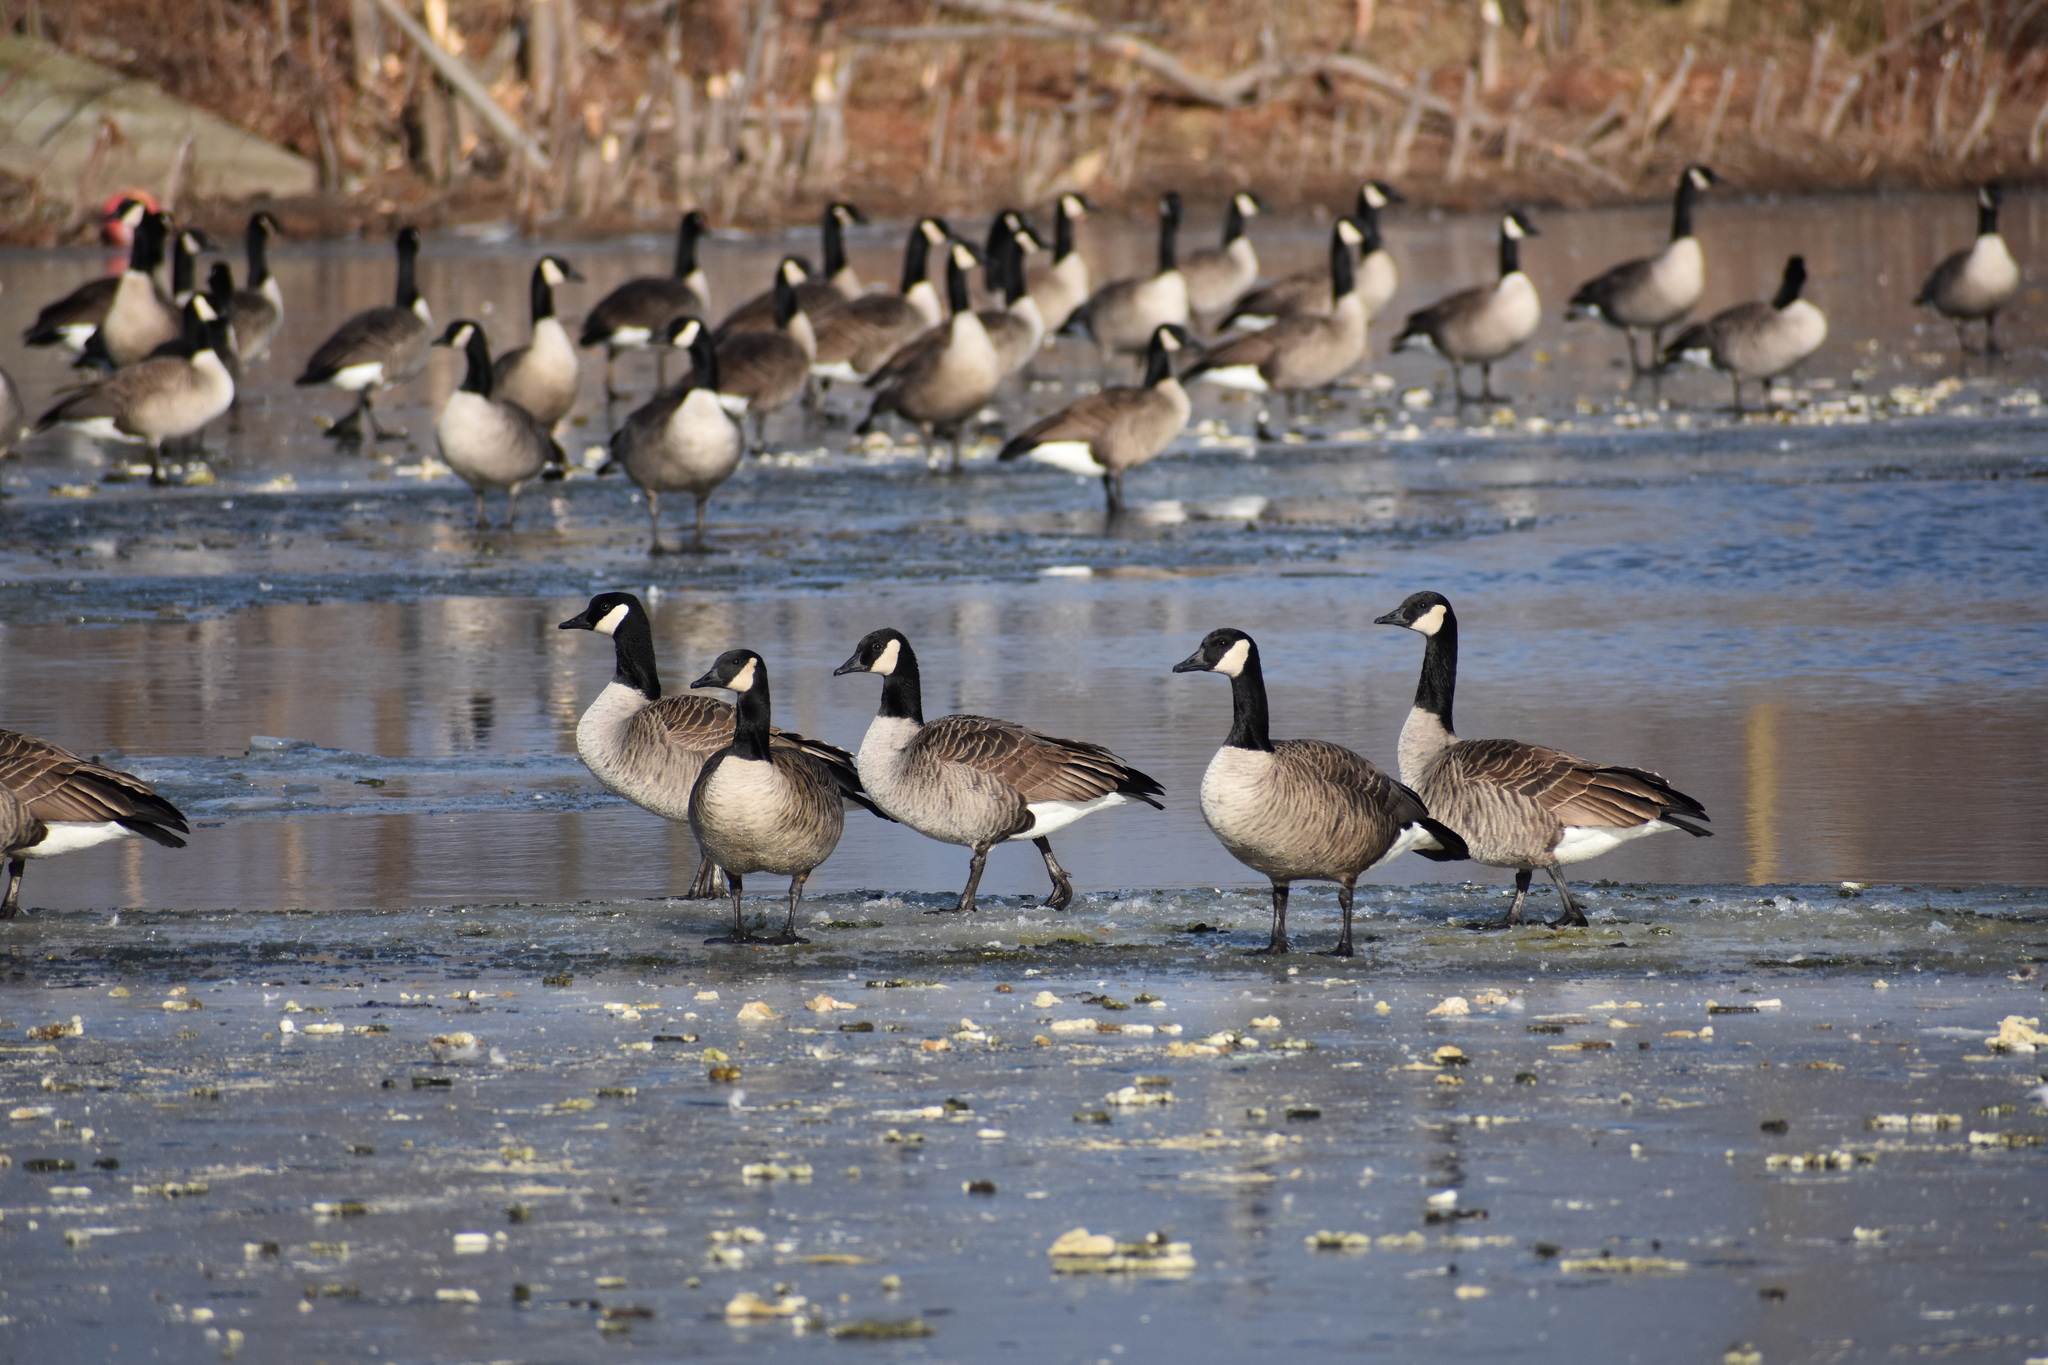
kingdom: Animalia
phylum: Chordata
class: Aves
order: Anseriformes
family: Anatidae
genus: Branta
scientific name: Branta canadensis
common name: Canada goose
